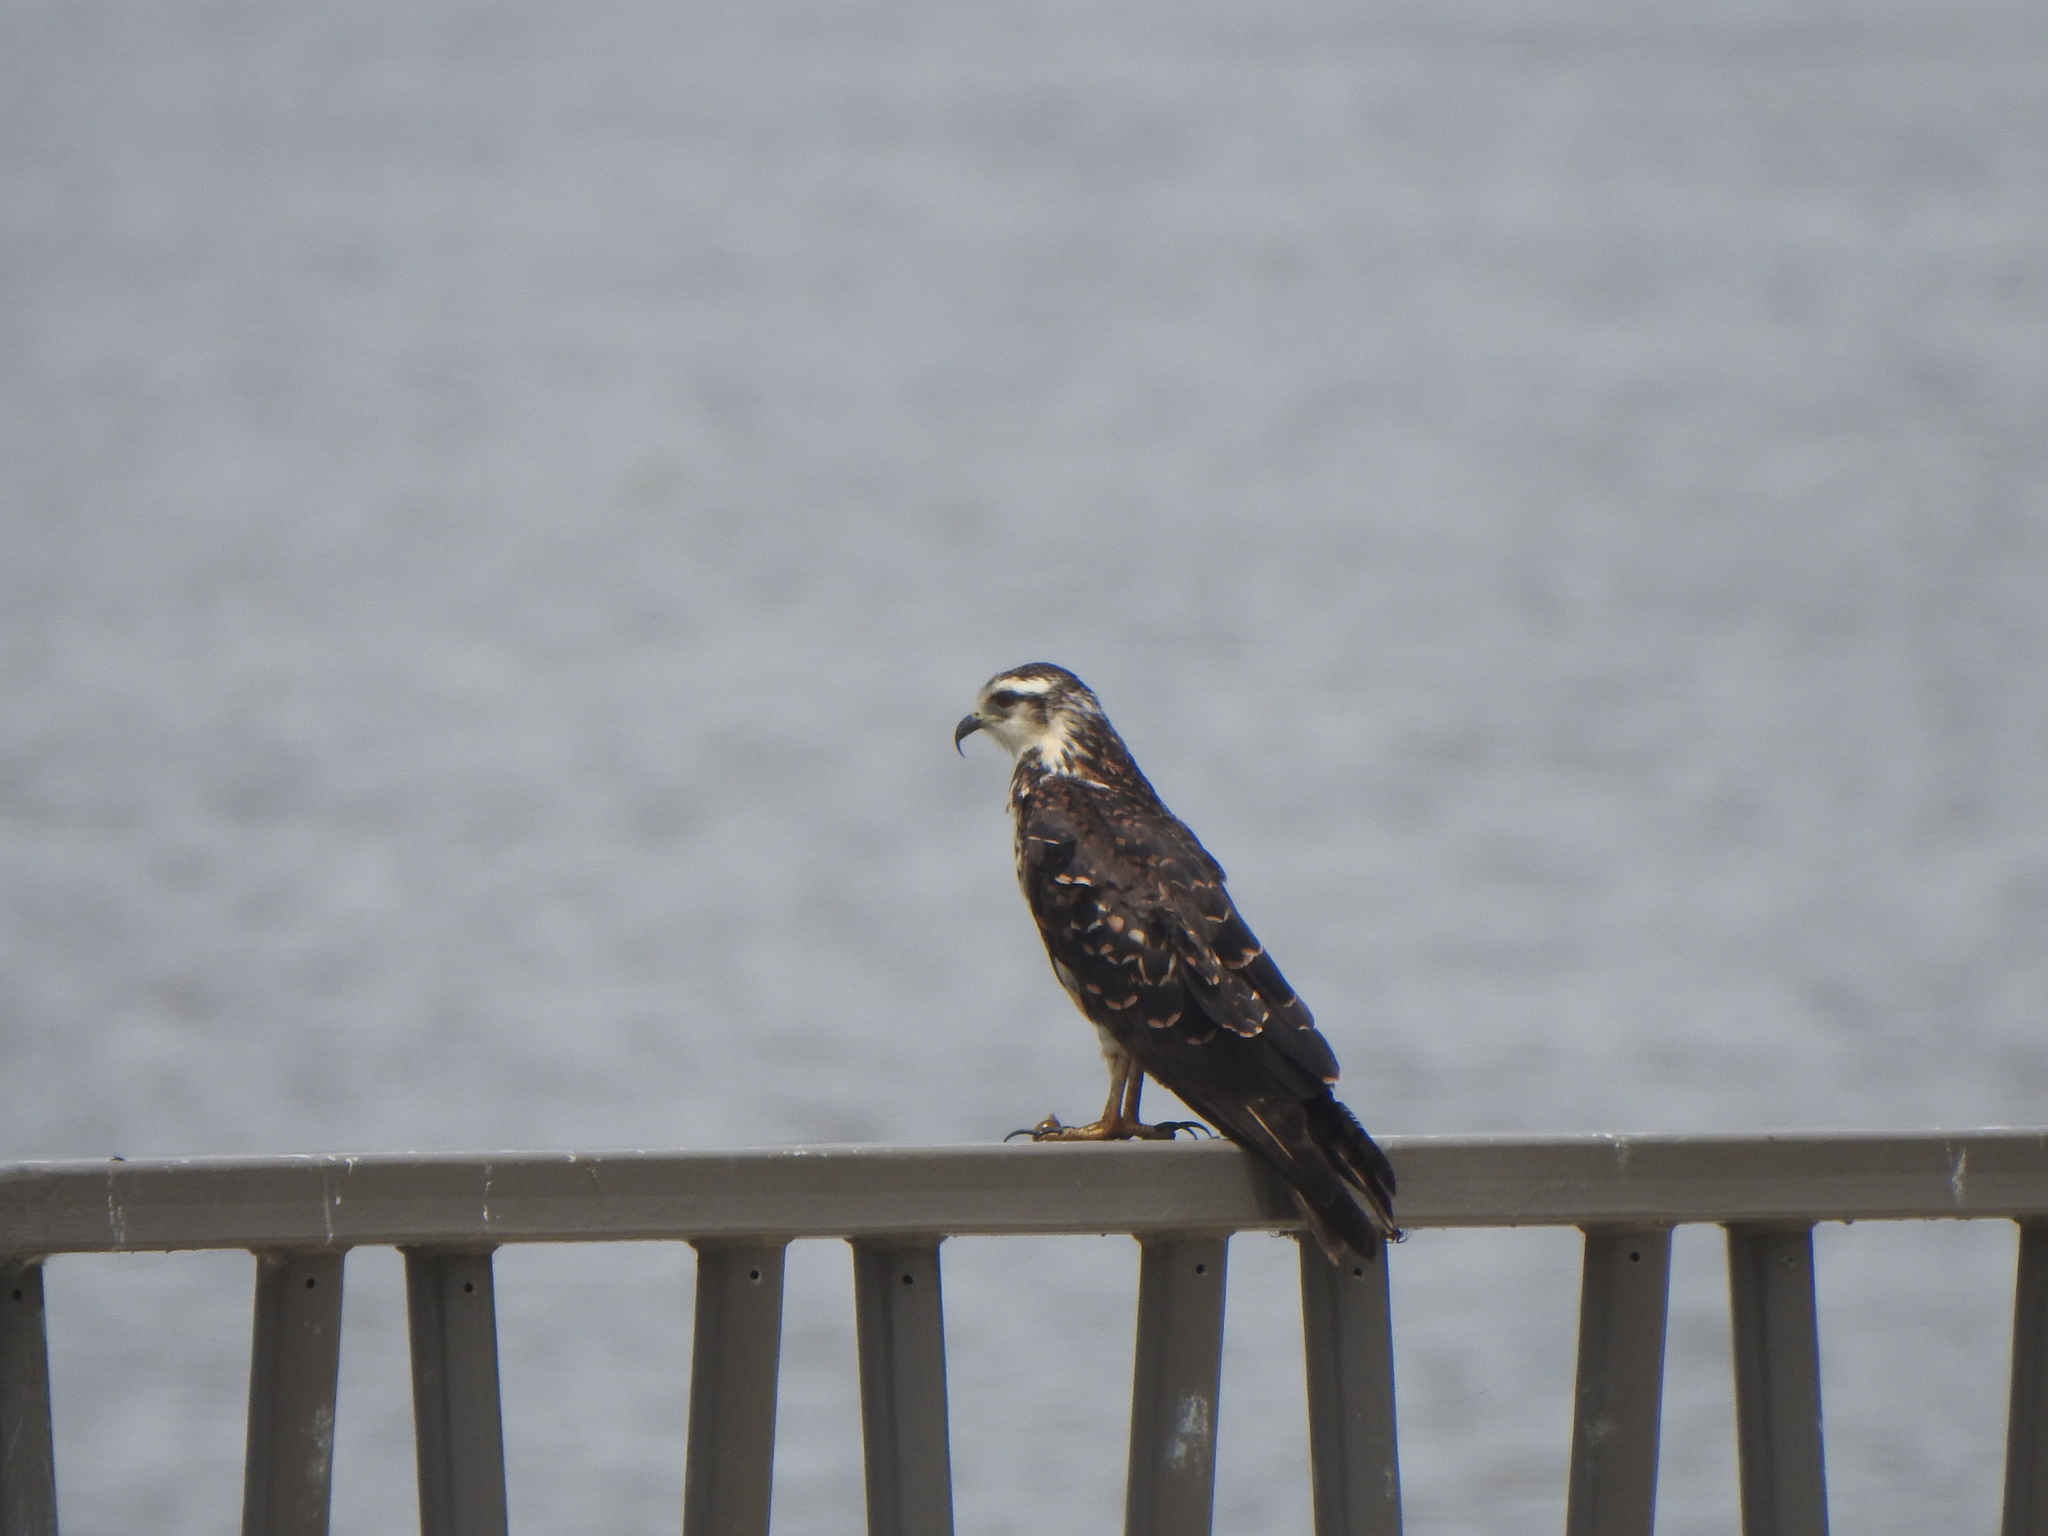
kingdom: Animalia
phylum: Chordata
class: Aves
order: Accipitriformes
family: Accipitridae
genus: Rostrhamus
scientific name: Rostrhamus sociabilis
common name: Snail kite
